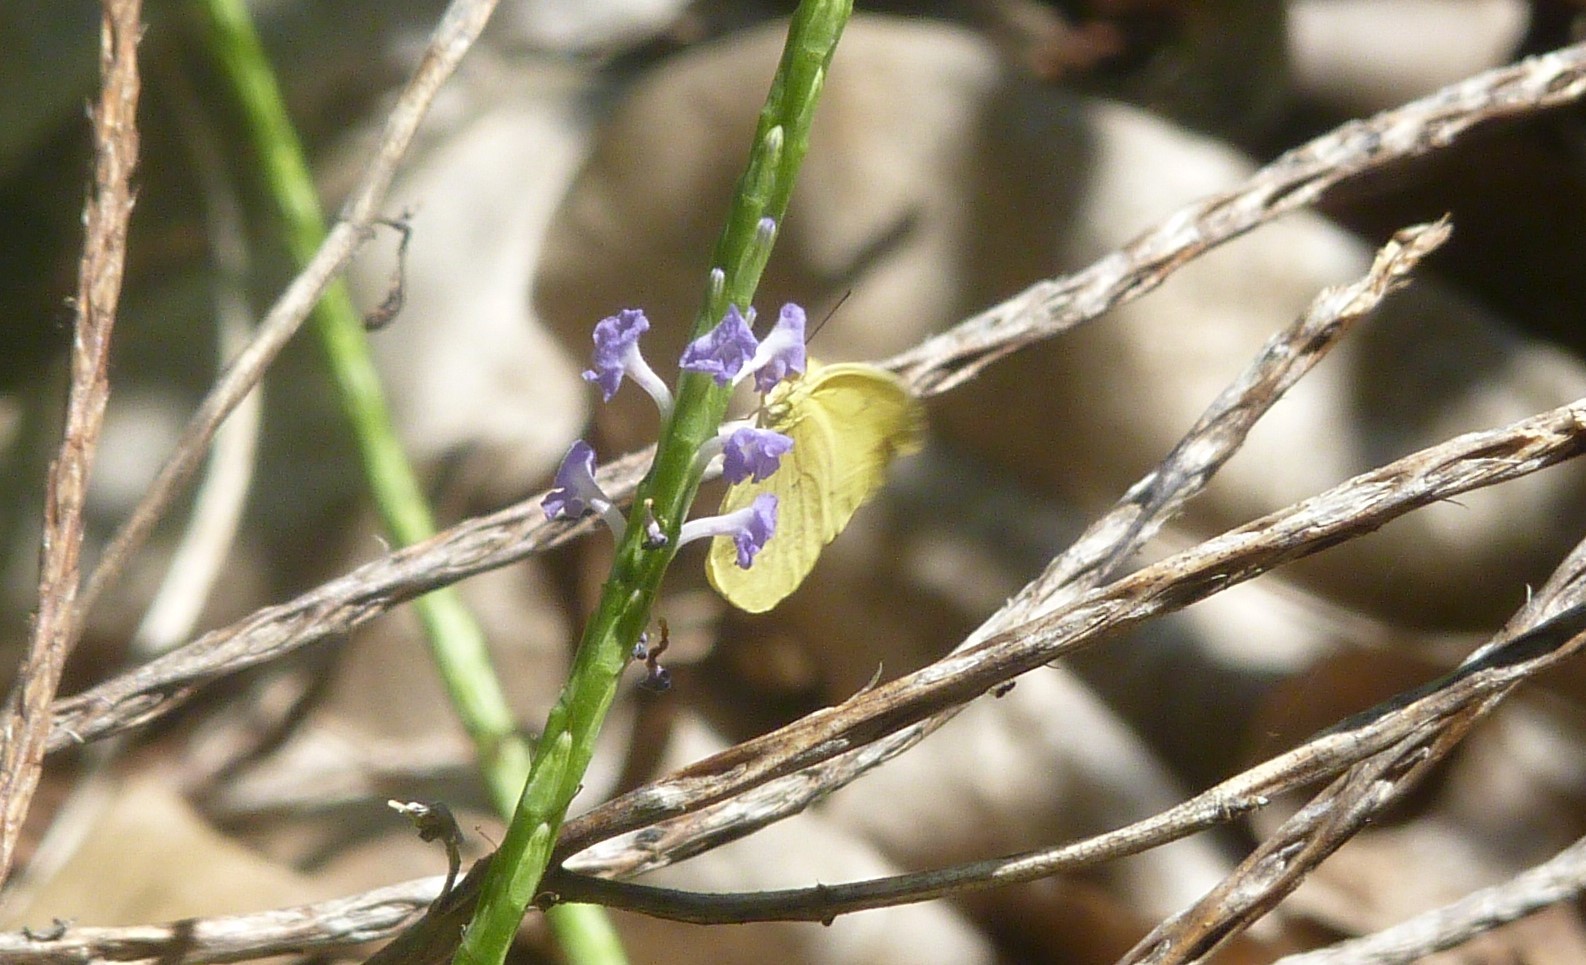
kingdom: Animalia
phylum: Arthropoda
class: Insecta
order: Lepidoptera
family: Pieridae
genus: Eurema
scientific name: Eurema floricola
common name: Malagasy grass yellow
